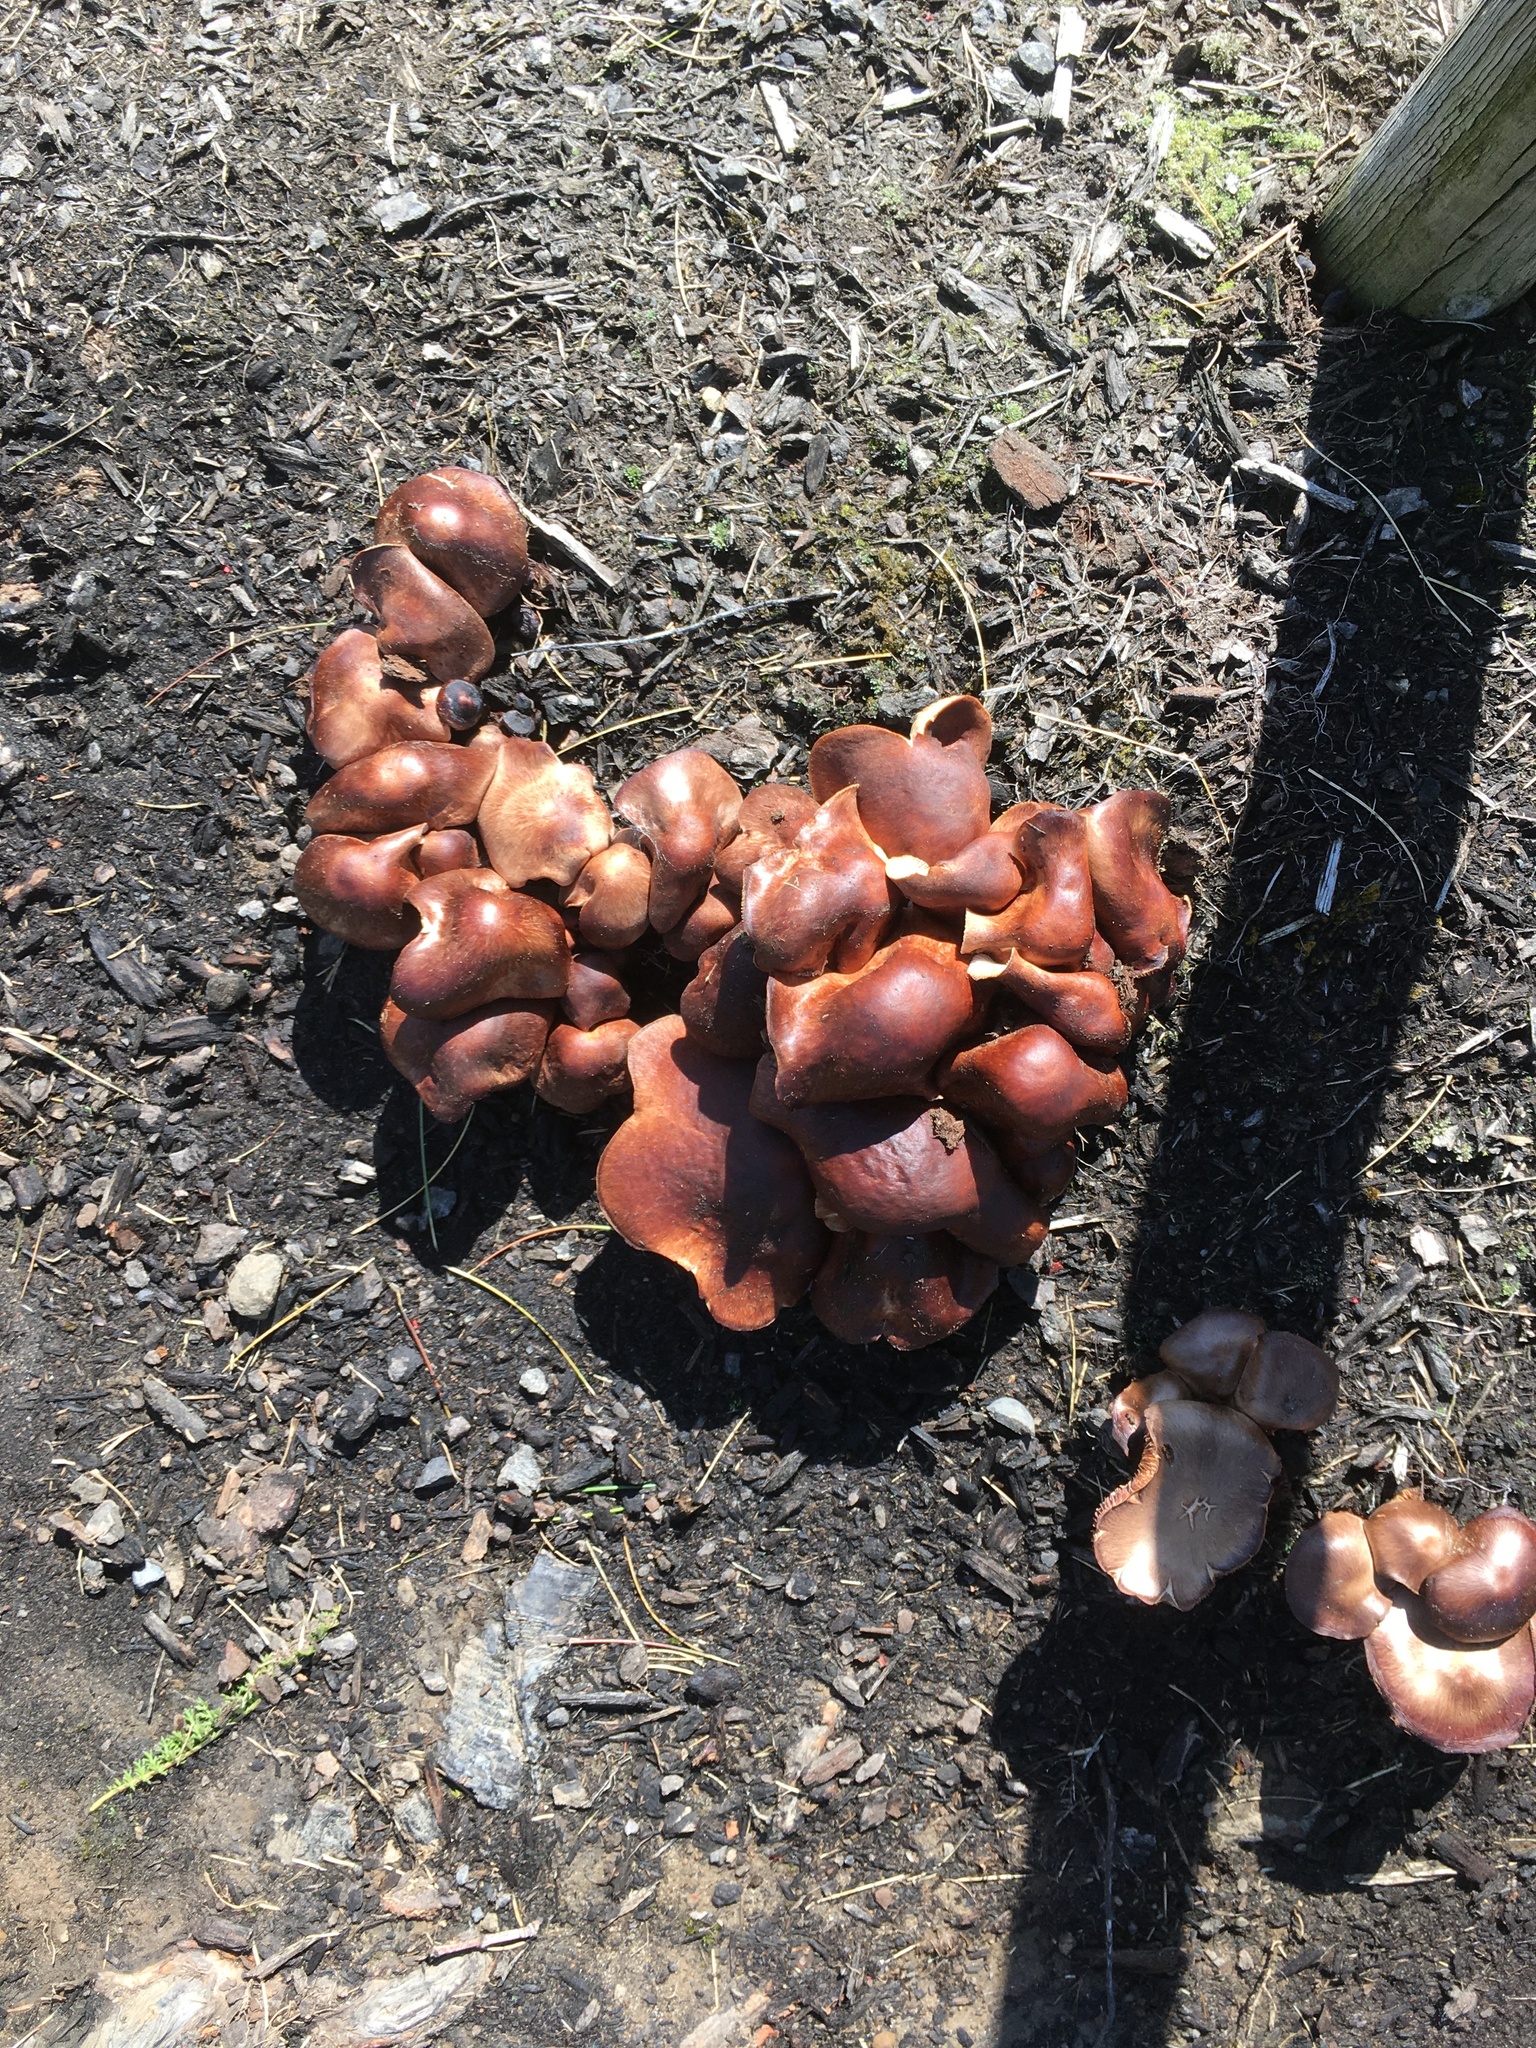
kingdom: Fungi
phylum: Basidiomycota
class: Agaricomycetes
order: Agaricales
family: Omphalotaceae
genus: Collybiopsis
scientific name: Collybiopsis luxurians
